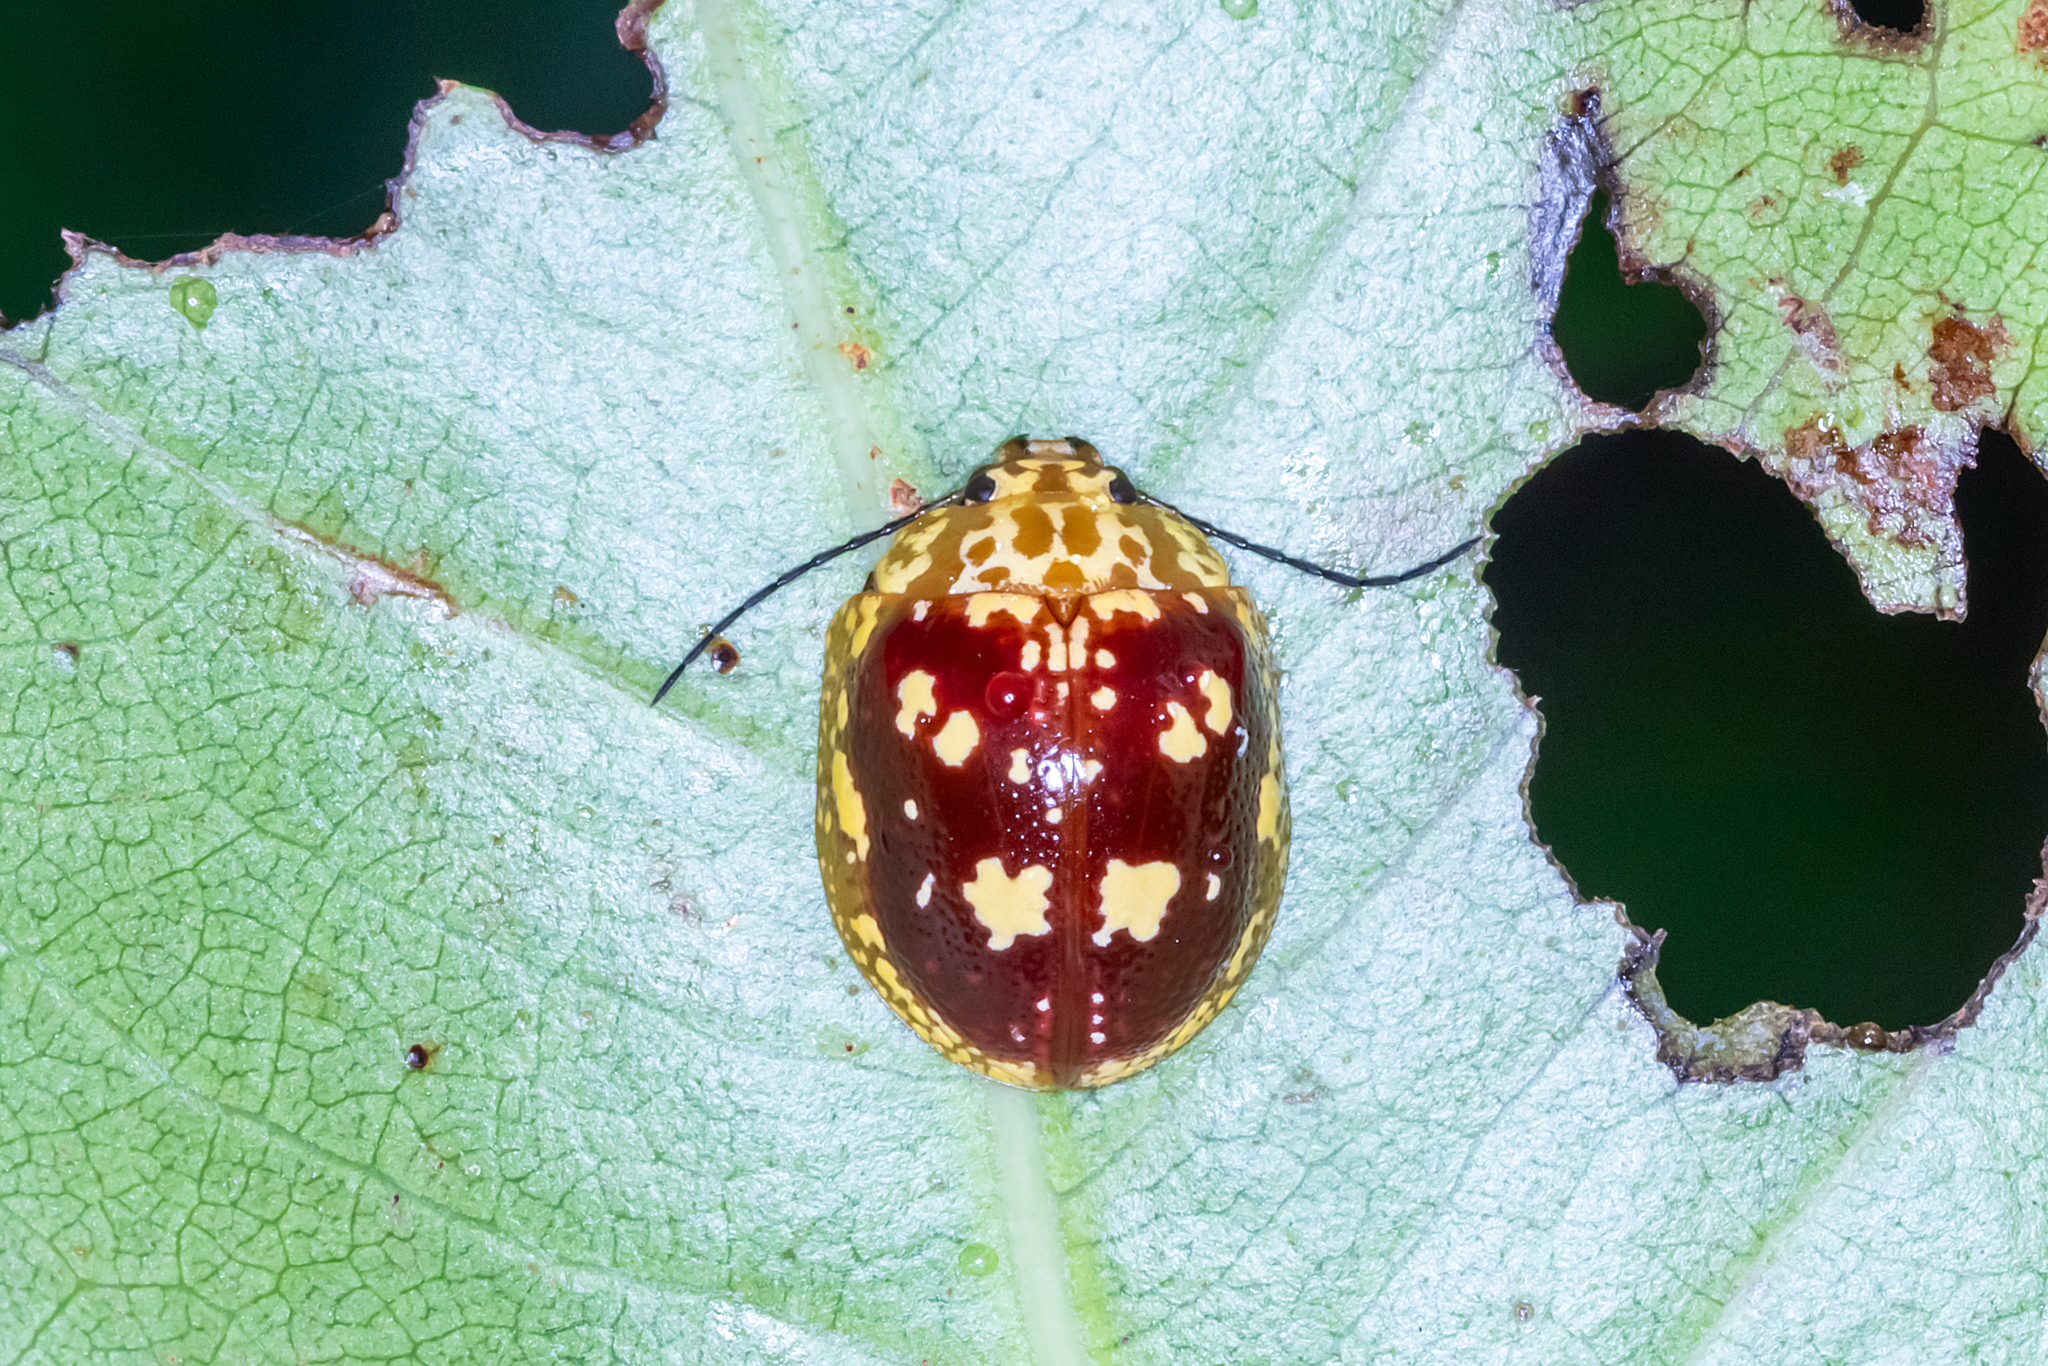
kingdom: Animalia
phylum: Arthropoda
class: Insecta
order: Coleoptera
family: Chrysomelidae
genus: Paropsis
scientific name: Paropsis maculata
